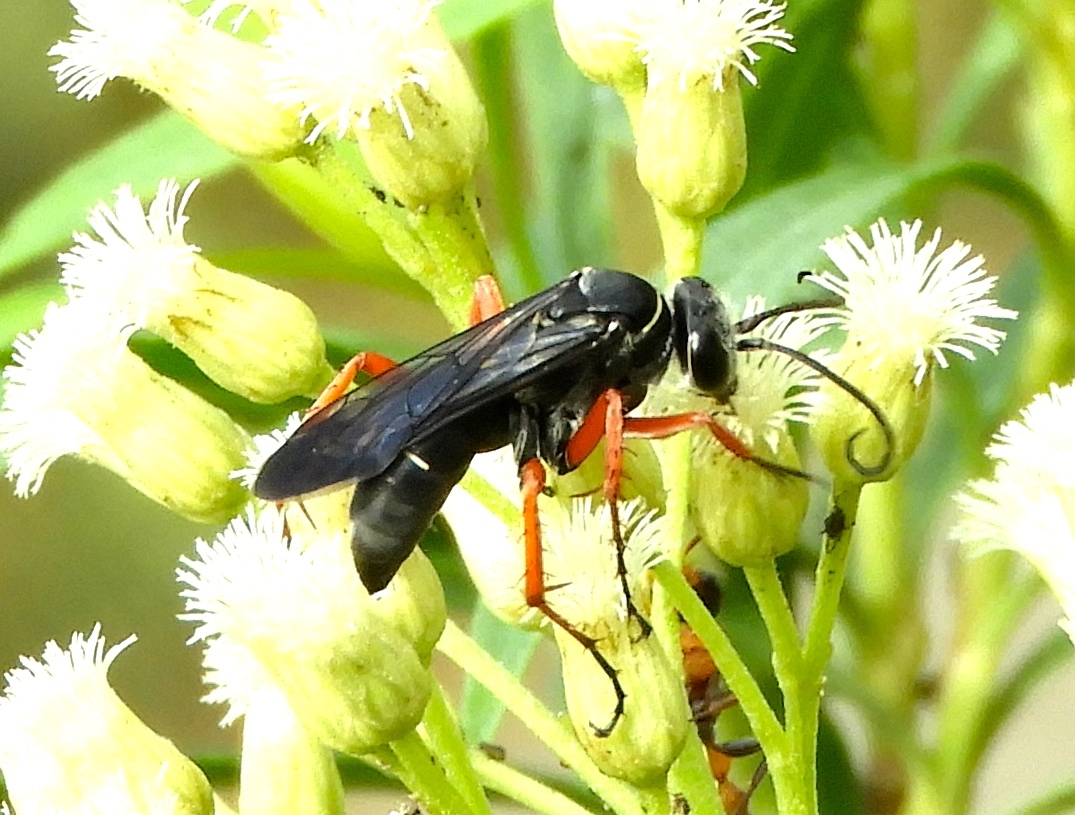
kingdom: Animalia
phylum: Arthropoda
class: Insecta
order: Hymenoptera
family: Pompilidae
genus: Episyron
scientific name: Episyron conterminus
